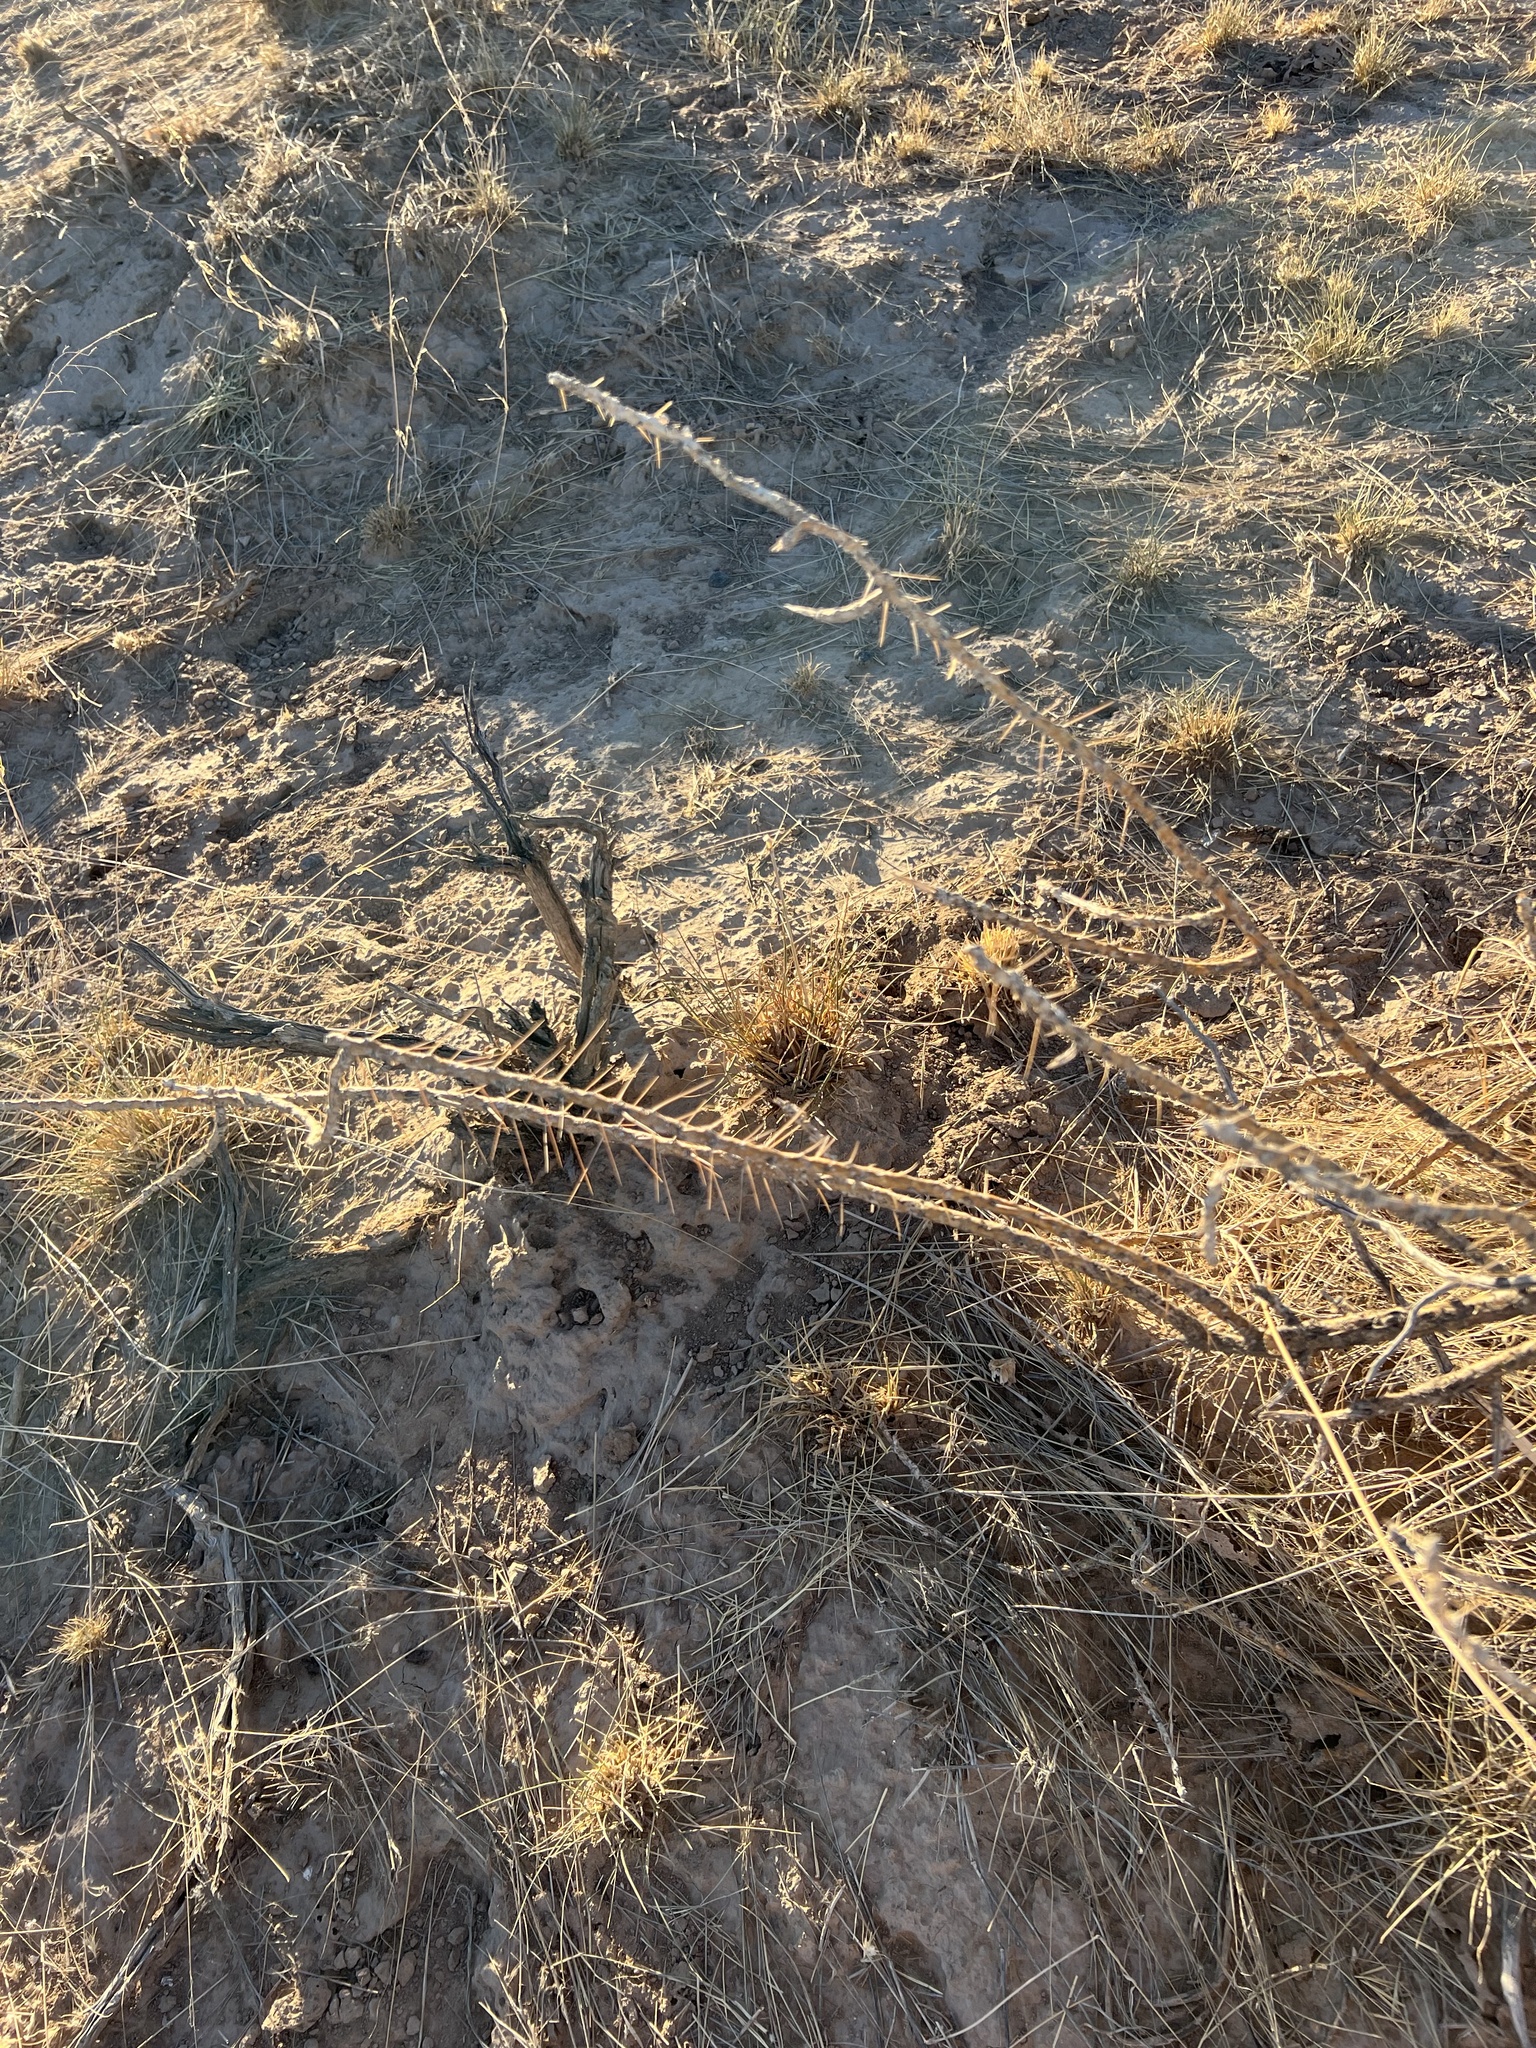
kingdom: Plantae
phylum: Tracheophyta
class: Magnoliopsida
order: Caryophyllales
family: Cactaceae
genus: Cylindropuntia
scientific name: Cylindropuntia leptocaulis
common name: Christmas cactus
